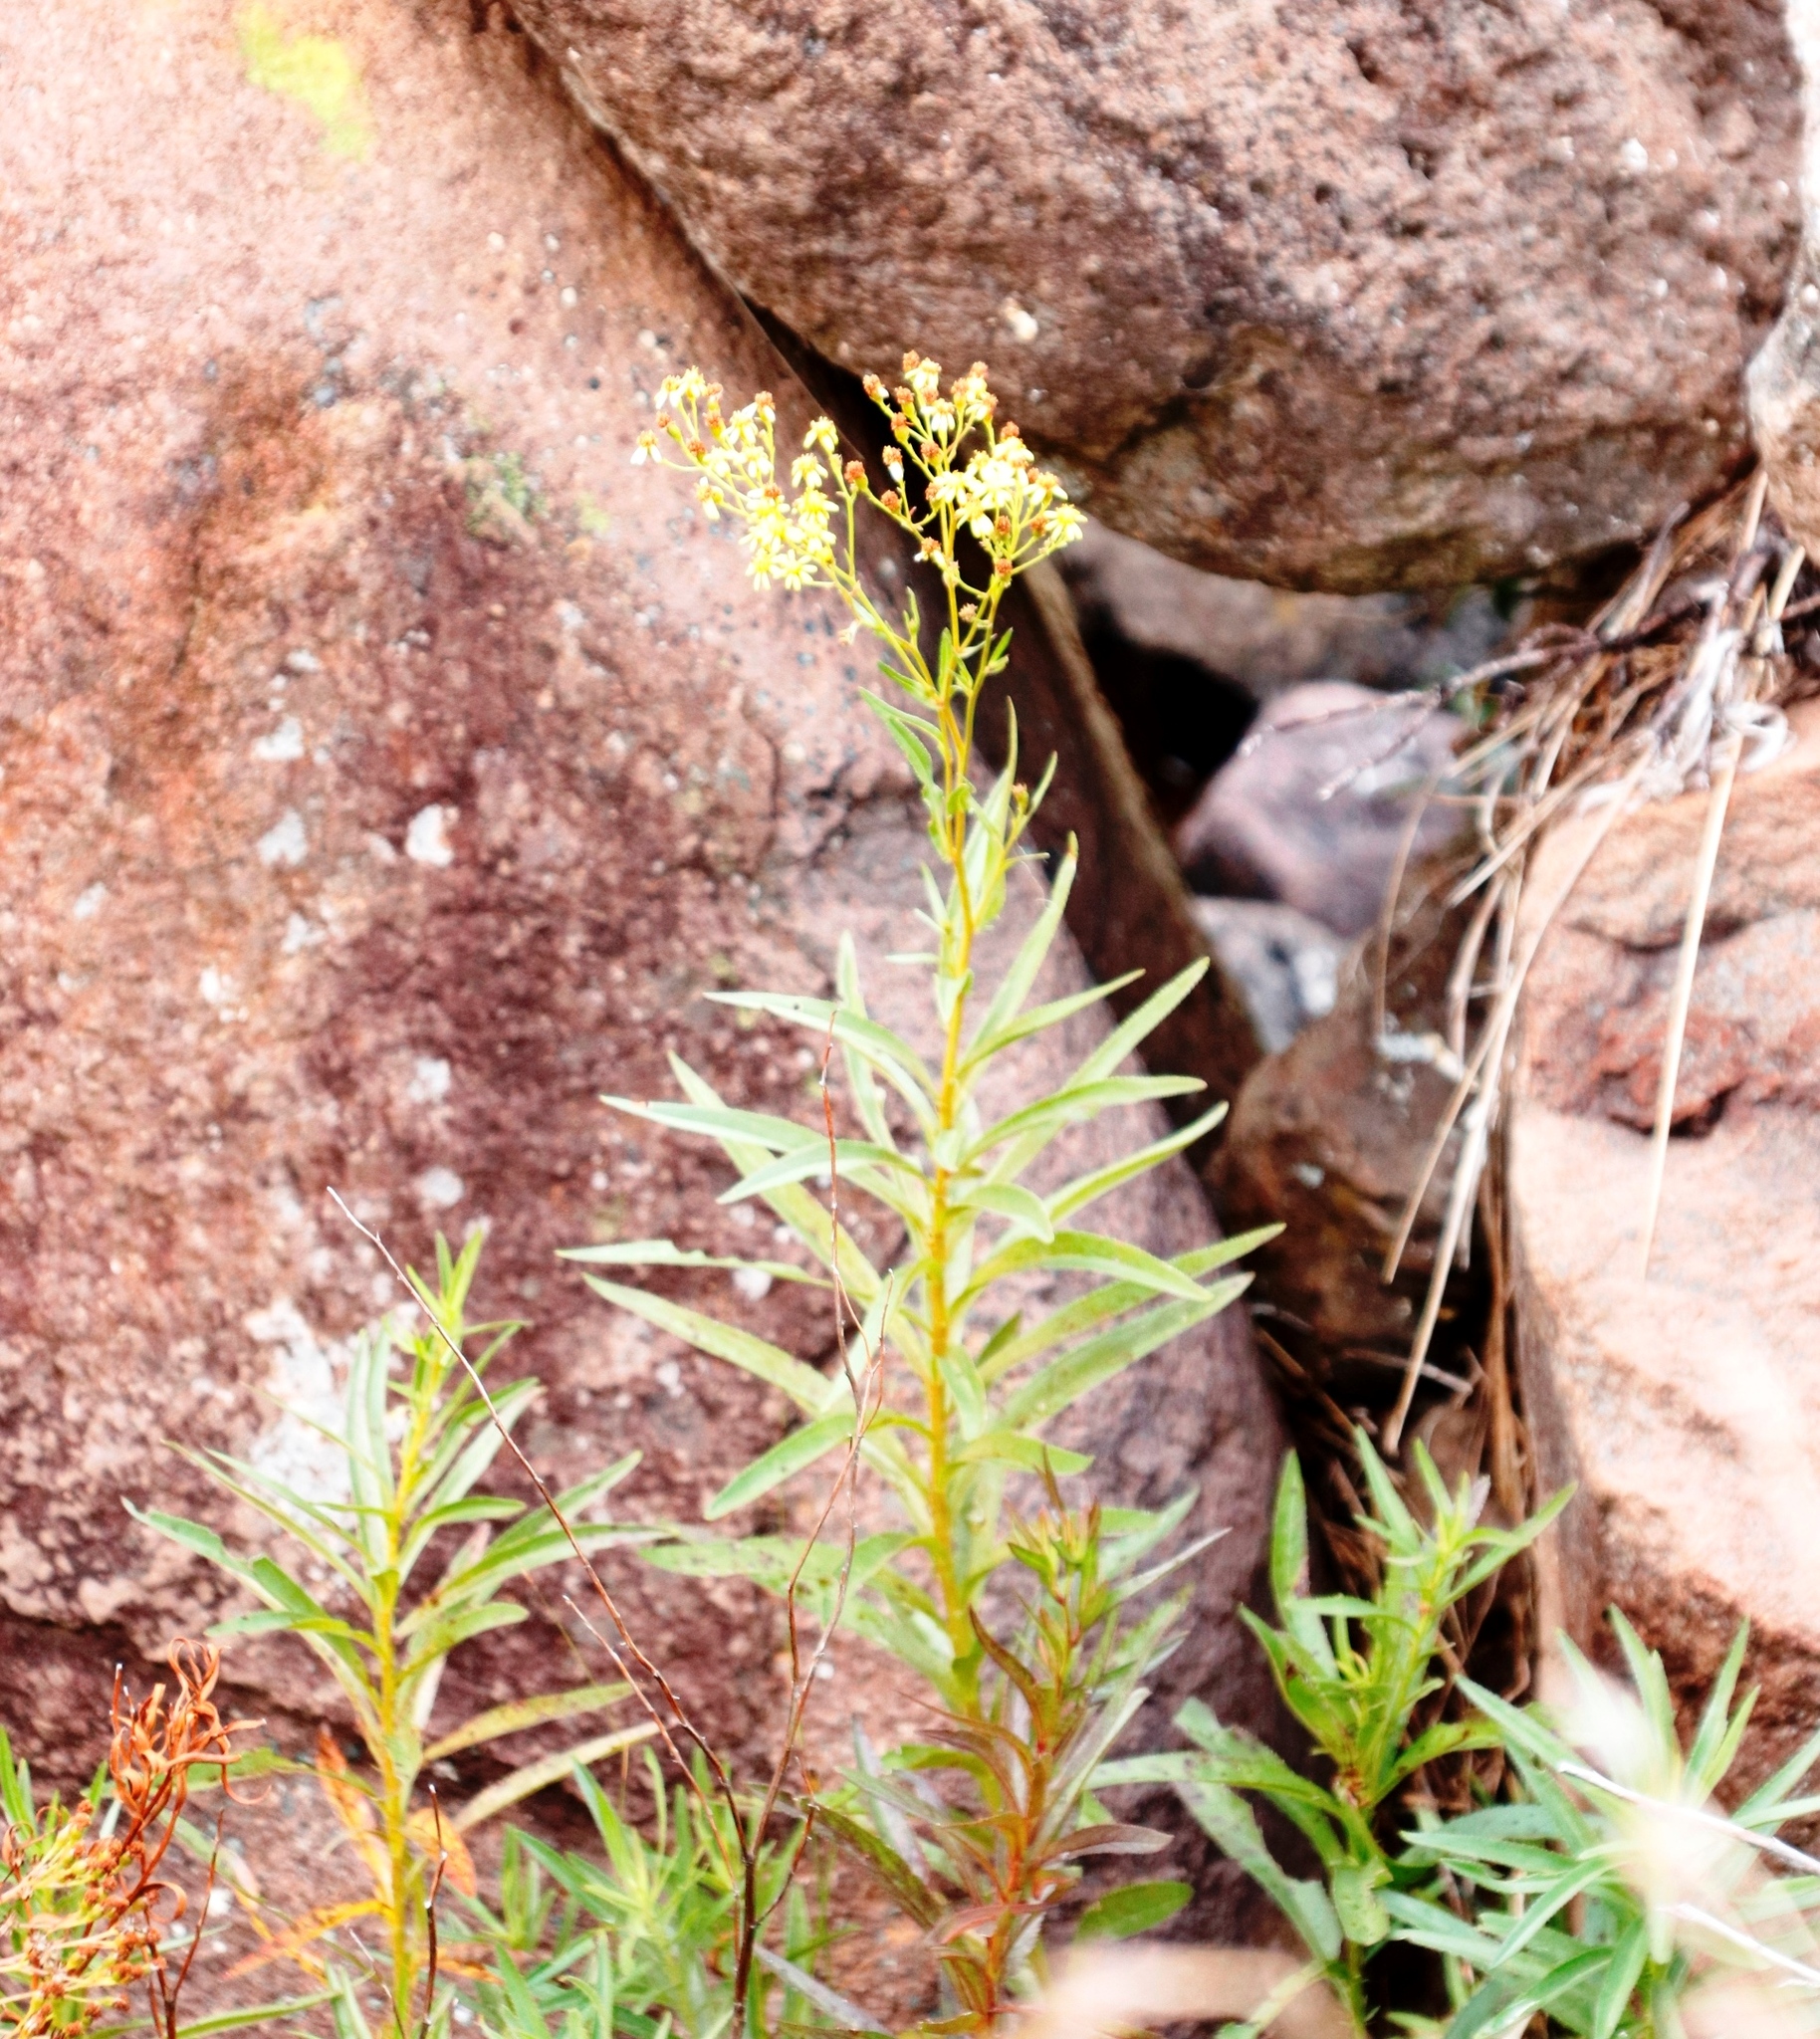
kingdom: Plantae
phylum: Tracheophyta
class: Magnoliopsida
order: Asterales
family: Asteraceae
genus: Tagetes
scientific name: Tagetes minuta
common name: Muster john henry
